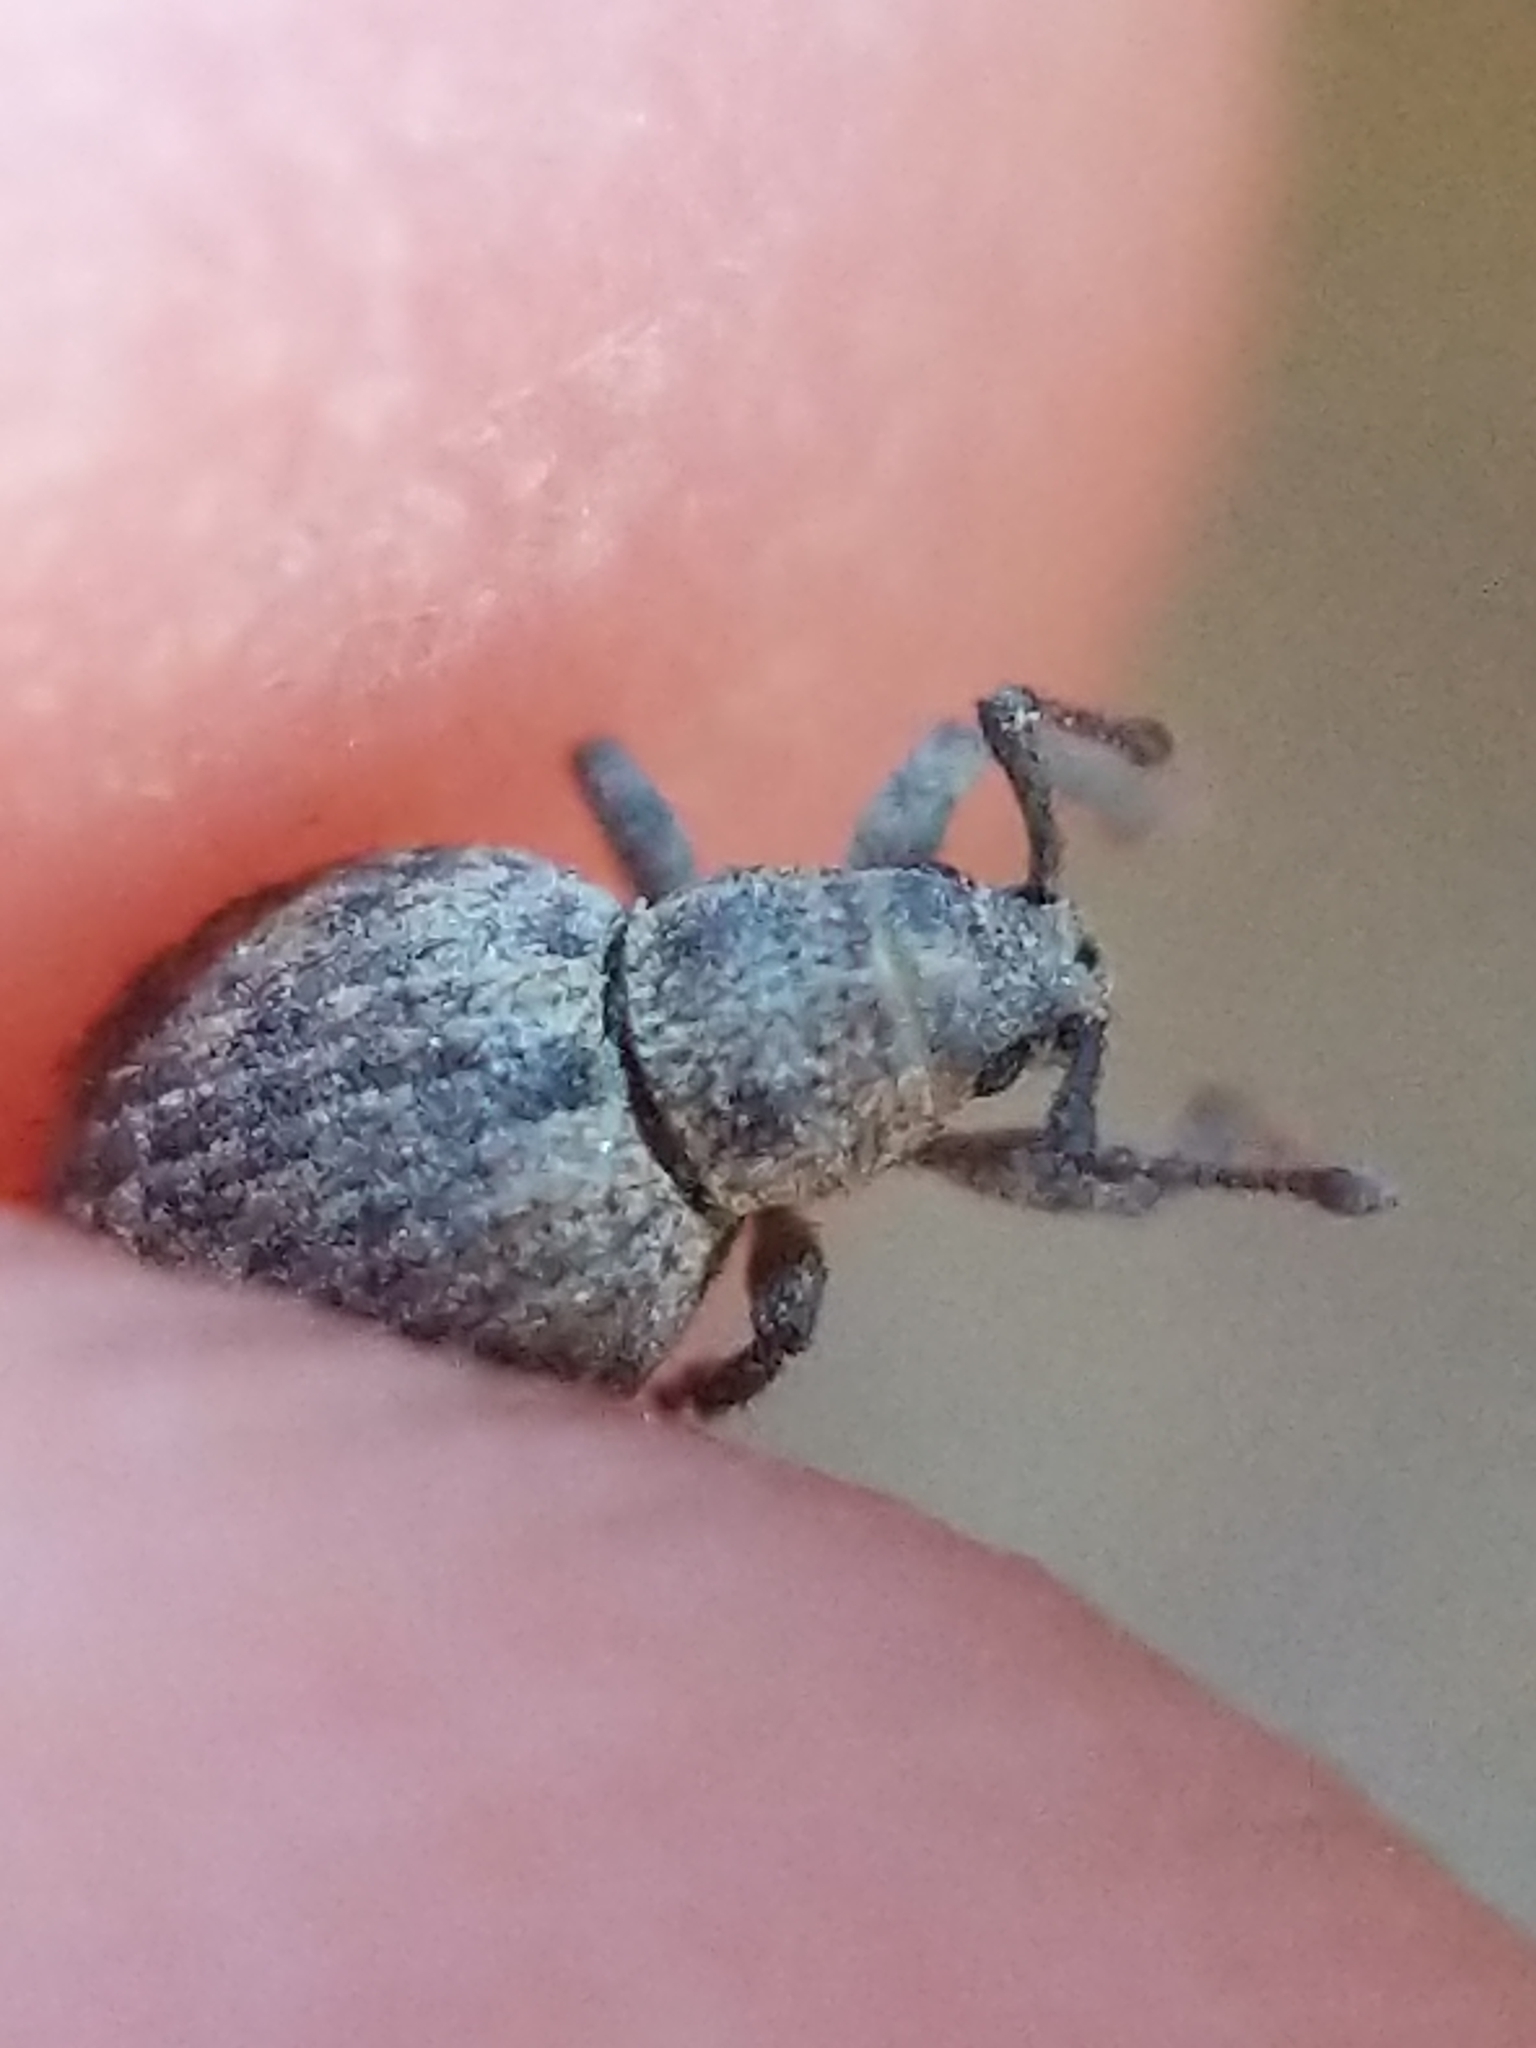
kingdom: Animalia
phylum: Arthropoda
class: Insecta
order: Coleoptera
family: Curculionidae
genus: Myosides
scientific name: Myosides seriehispidus
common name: Broadnosed weevil
